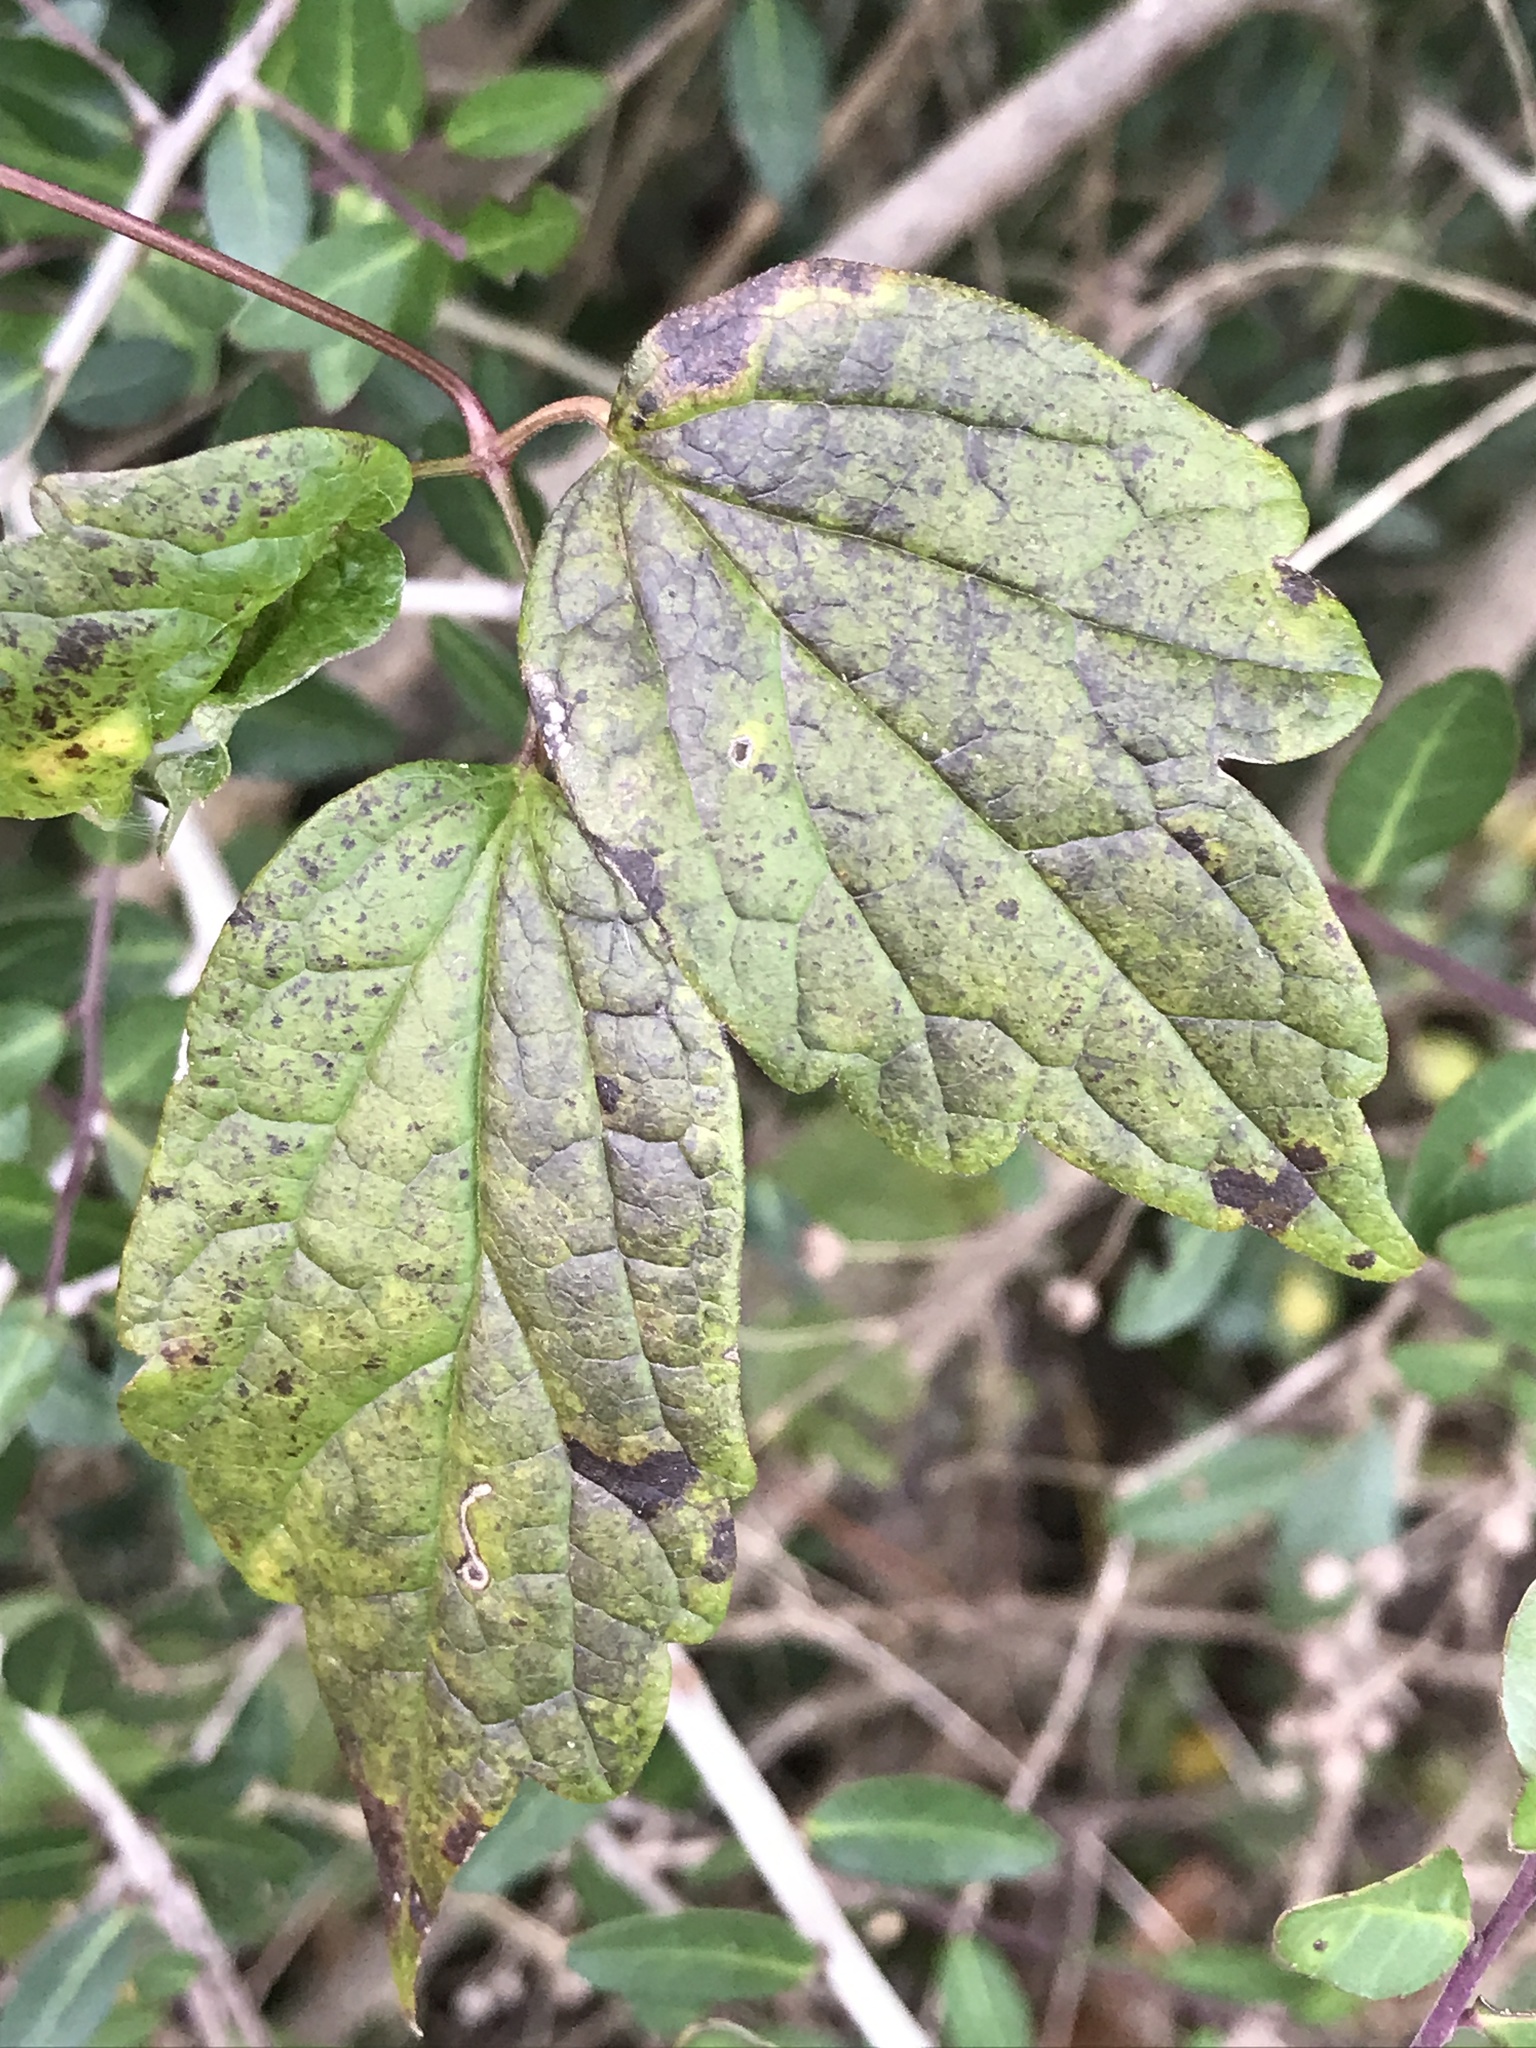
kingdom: Plantae
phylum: Tracheophyta
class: Magnoliopsida
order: Ranunculales
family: Ranunculaceae
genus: Clematis
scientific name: Clematis virginiana
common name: Virgin's-bower
